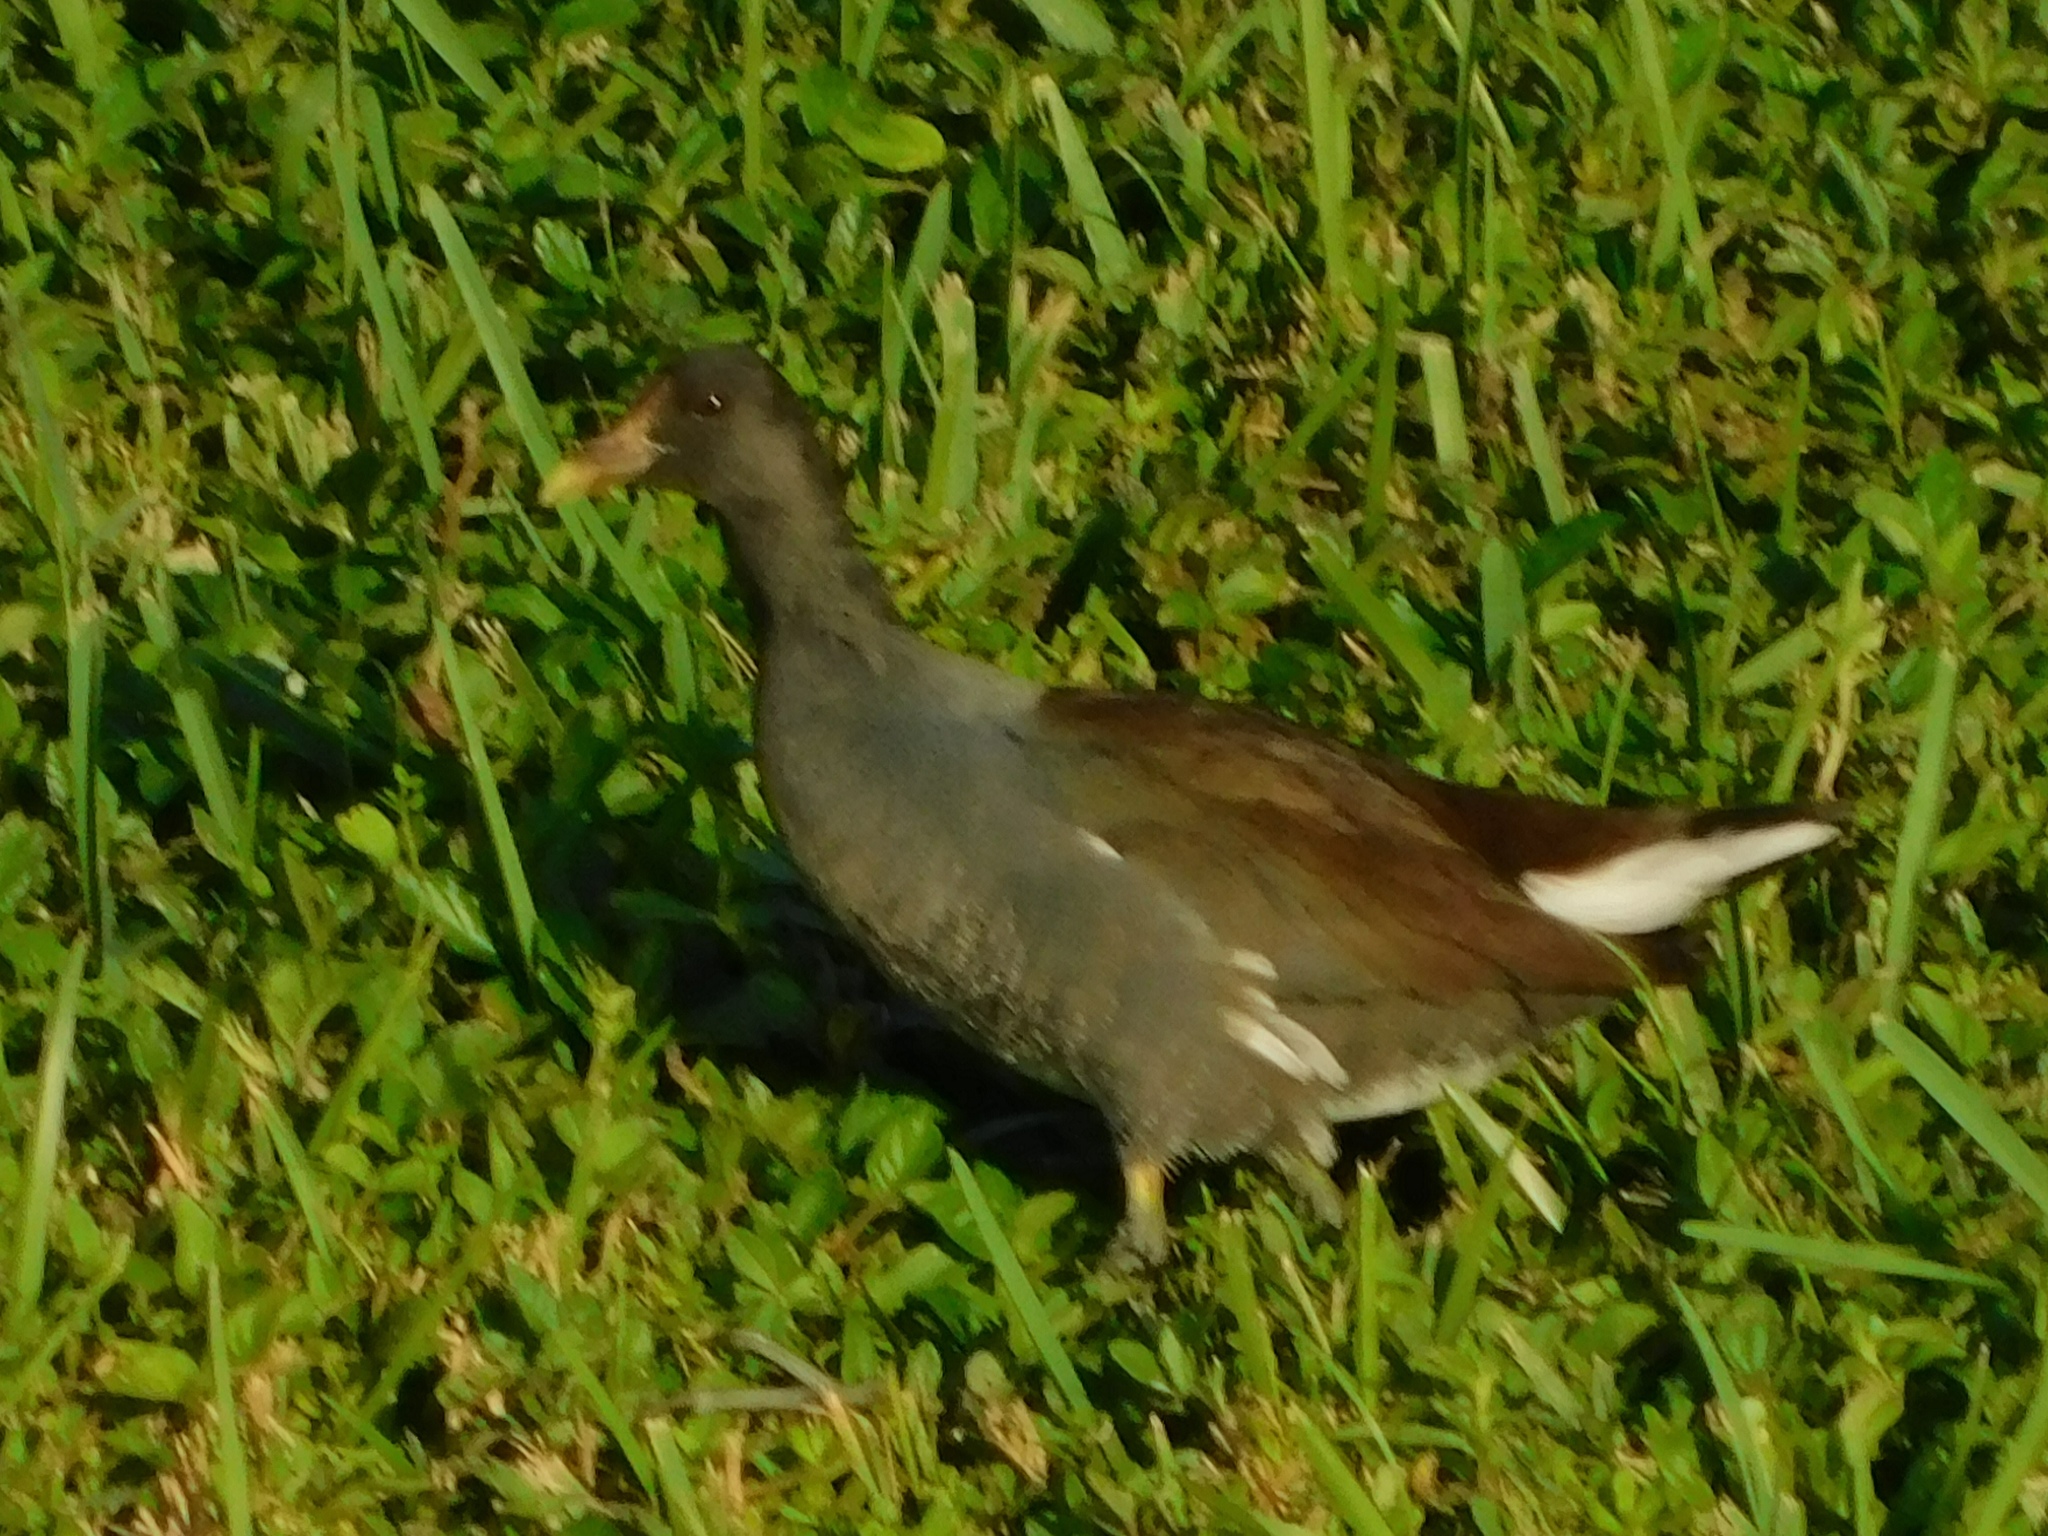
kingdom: Animalia
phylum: Chordata
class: Aves
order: Gruiformes
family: Rallidae
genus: Gallinula
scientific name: Gallinula chloropus
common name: Common moorhen
